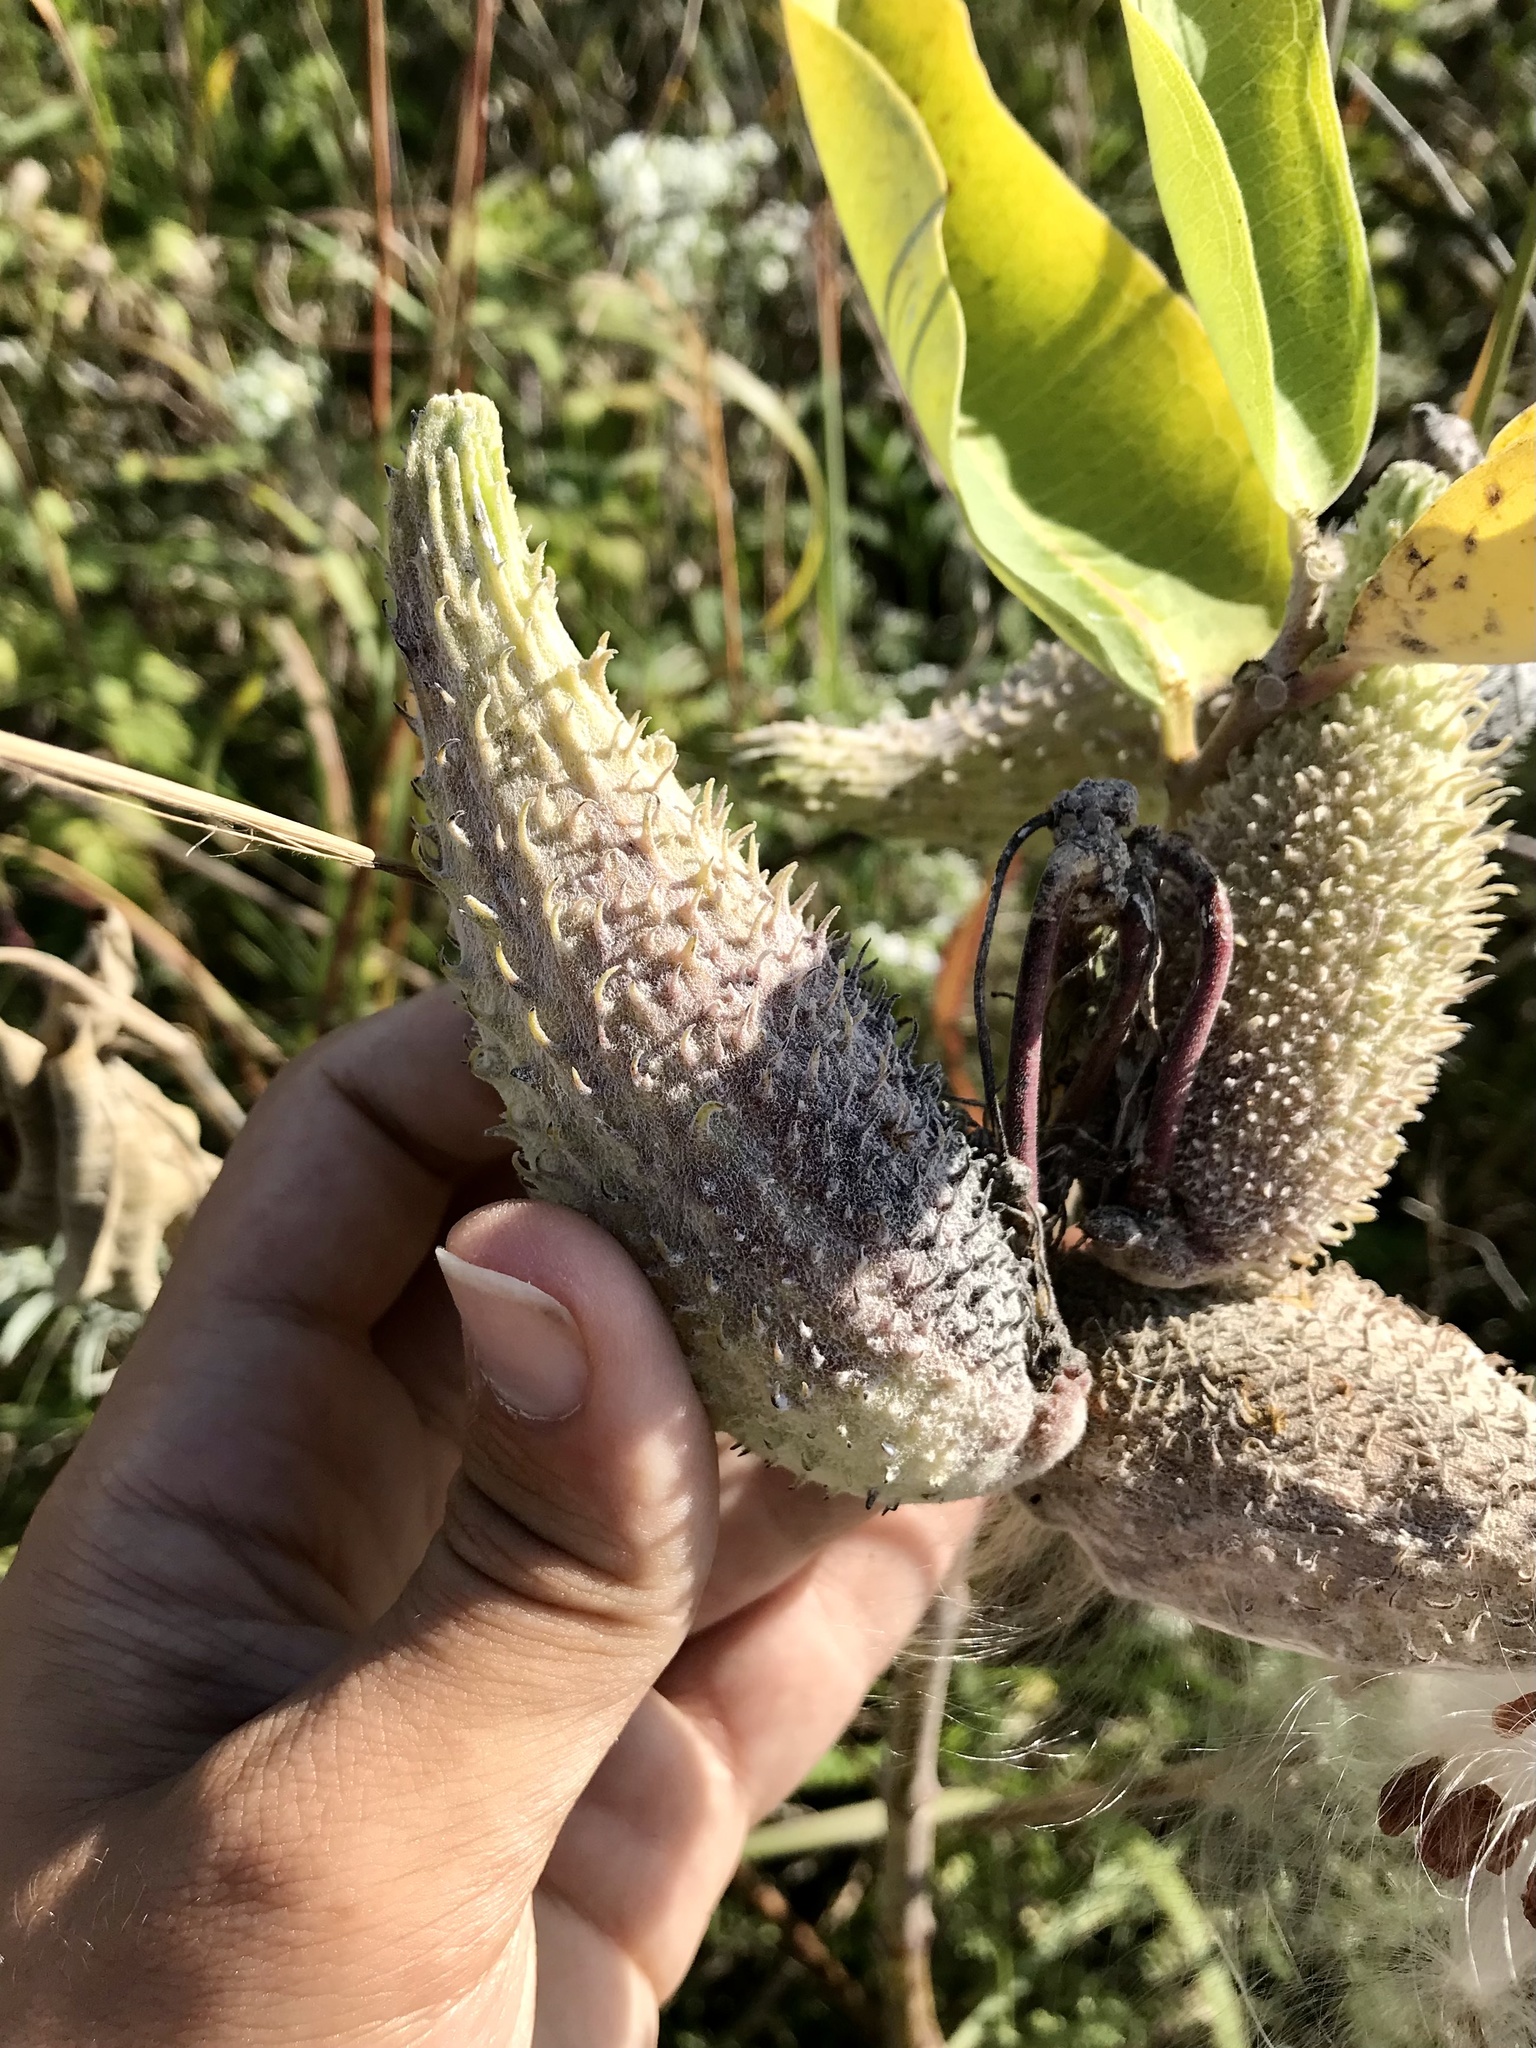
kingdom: Plantae
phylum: Tracheophyta
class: Magnoliopsida
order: Gentianales
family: Apocynaceae
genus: Asclepias
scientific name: Asclepias syriaca
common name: Common milkweed
